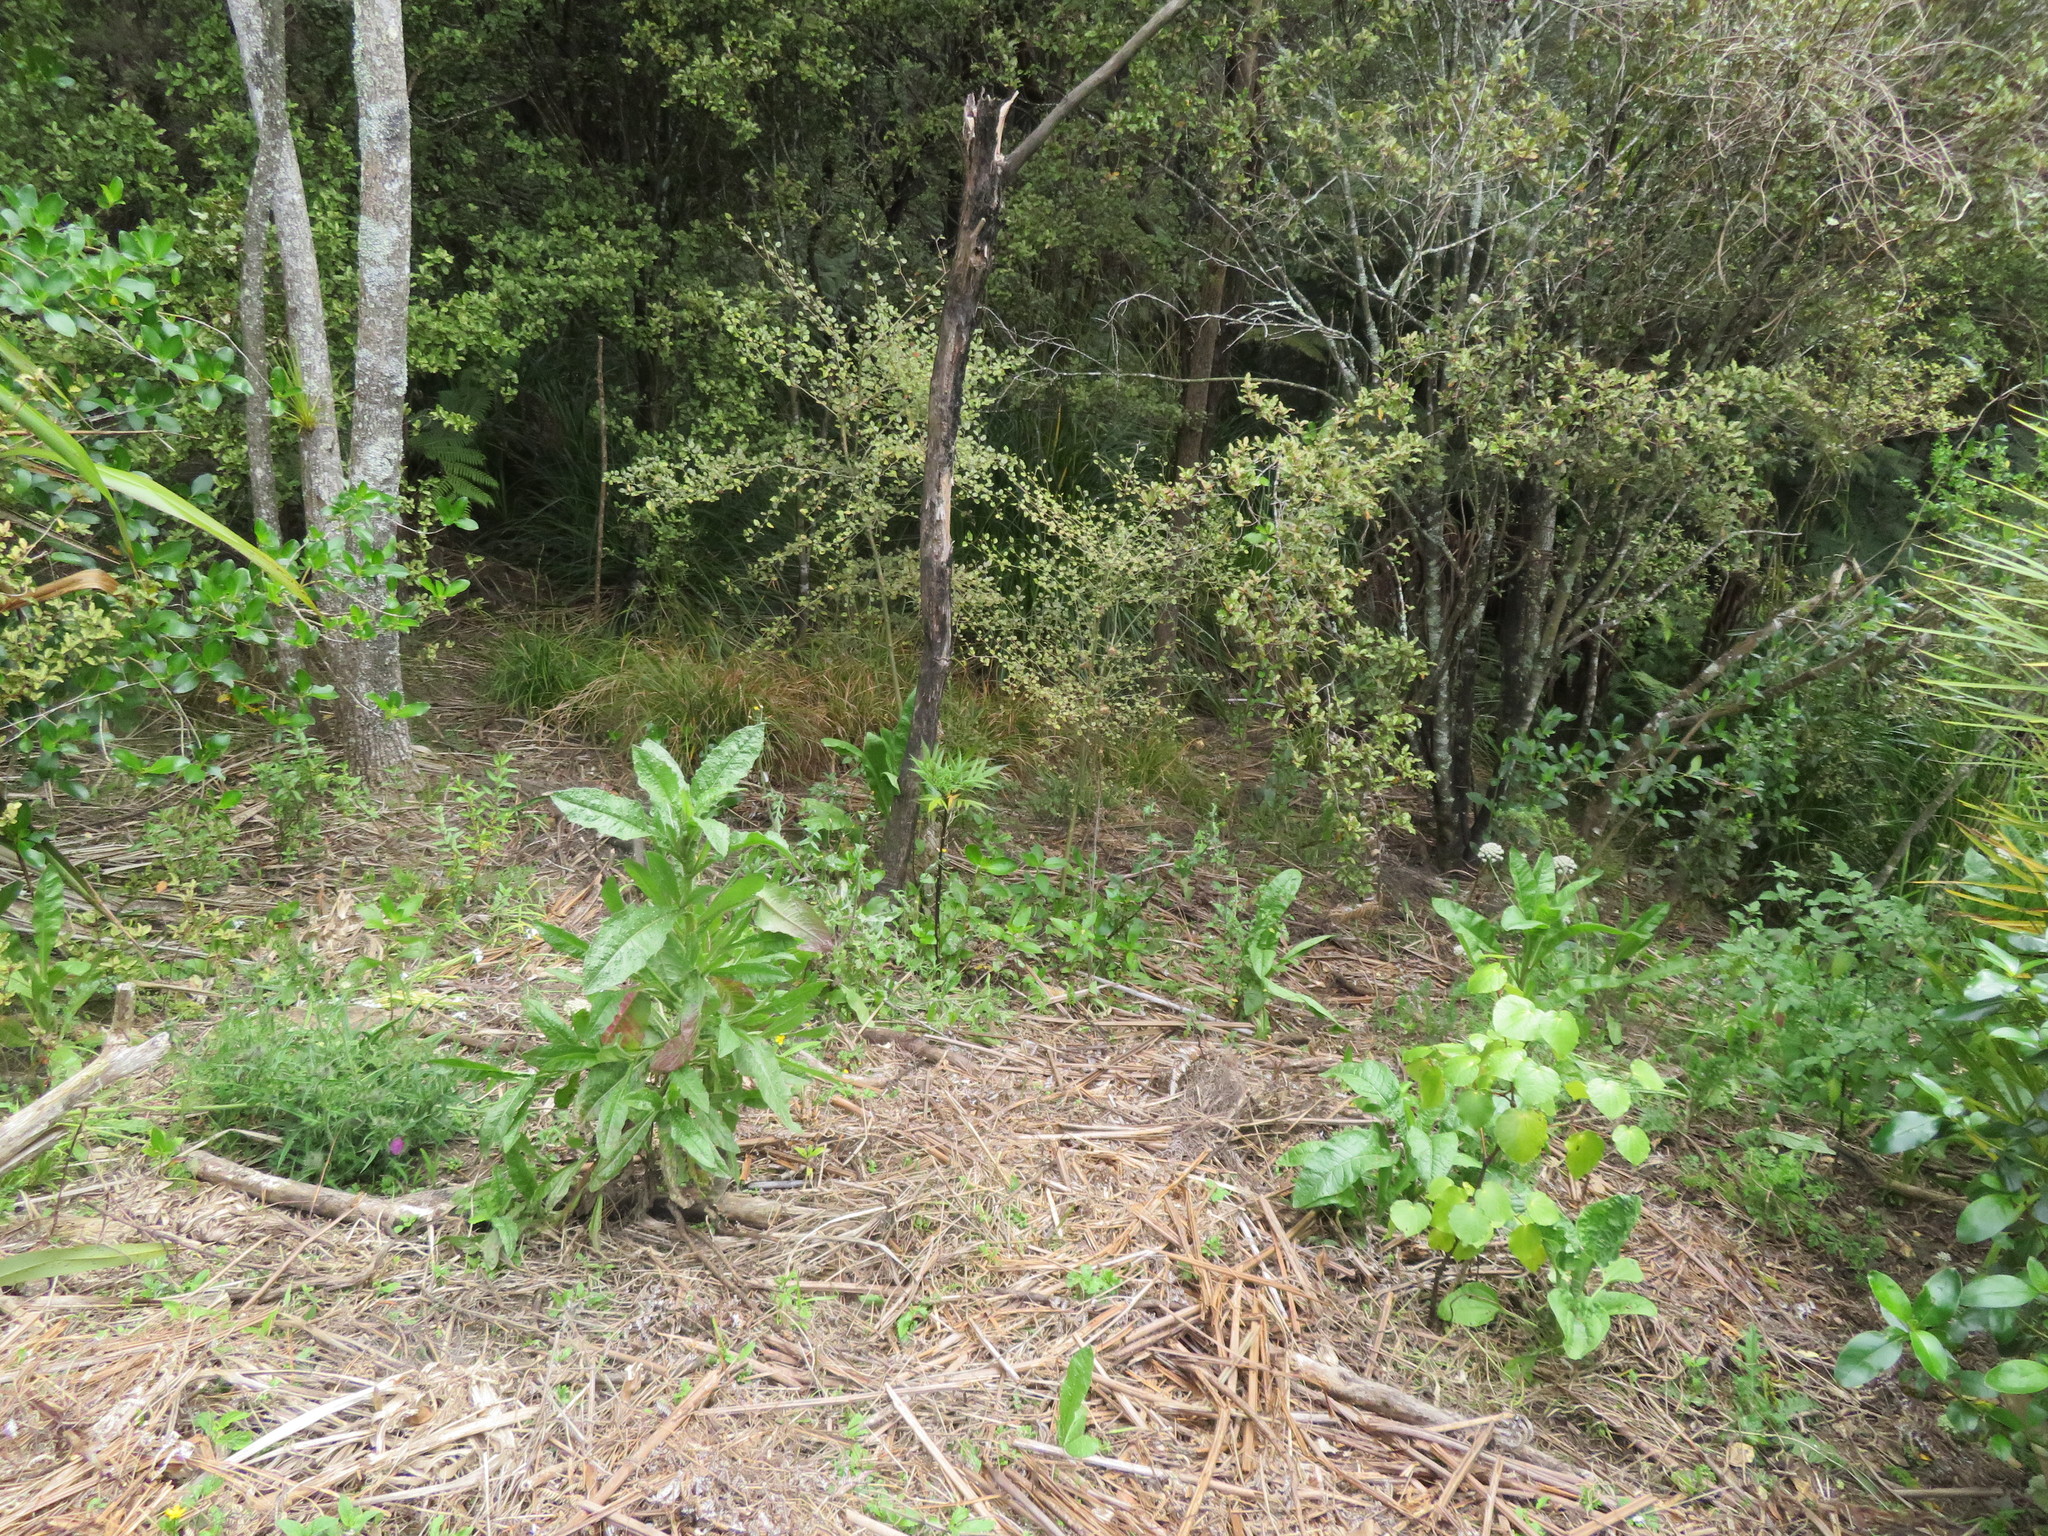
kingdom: Plantae
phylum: Tracheophyta
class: Magnoliopsida
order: Asterales
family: Asteraceae
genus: Helminthotheca
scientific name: Helminthotheca echioides
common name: Ox-tongue
